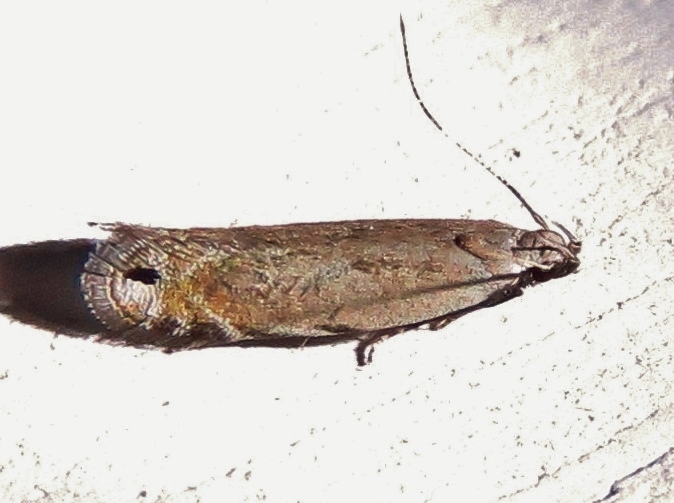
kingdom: Animalia
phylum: Arthropoda
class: Insecta
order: Lepidoptera
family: Gelechiidae
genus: Battaristis
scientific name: Battaristis concinnusella
